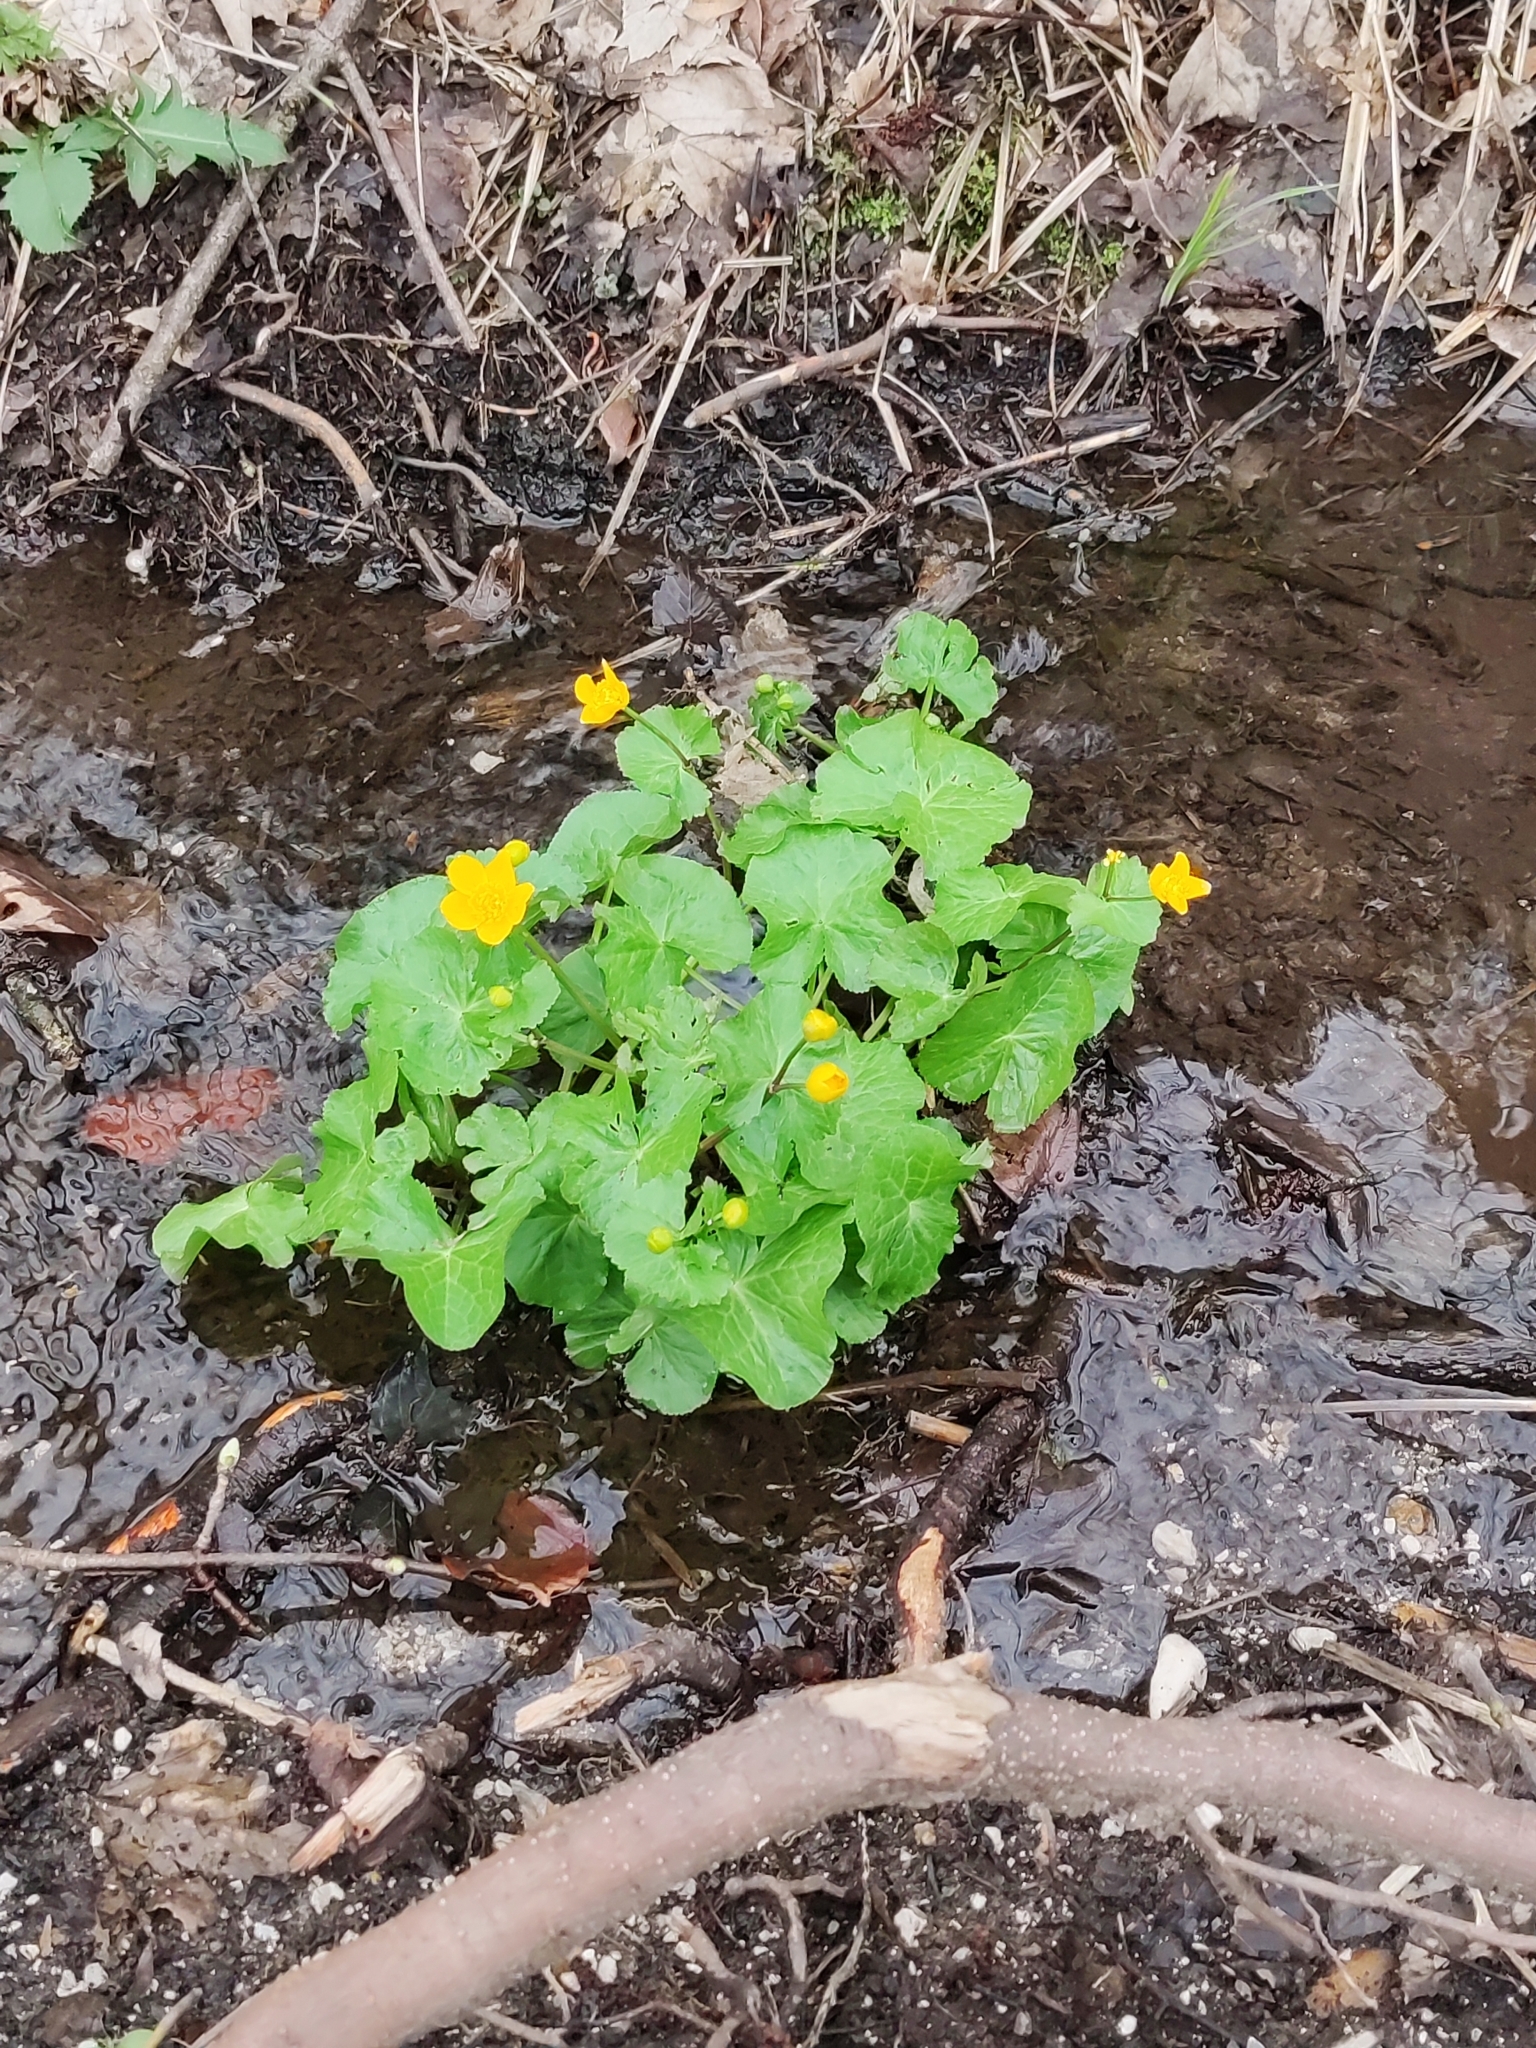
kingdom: Plantae
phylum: Tracheophyta
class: Magnoliopsida
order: Ranunculales
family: Ranunculaceae
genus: Caltha
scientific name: Caltha palustris
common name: Marsh marigold
